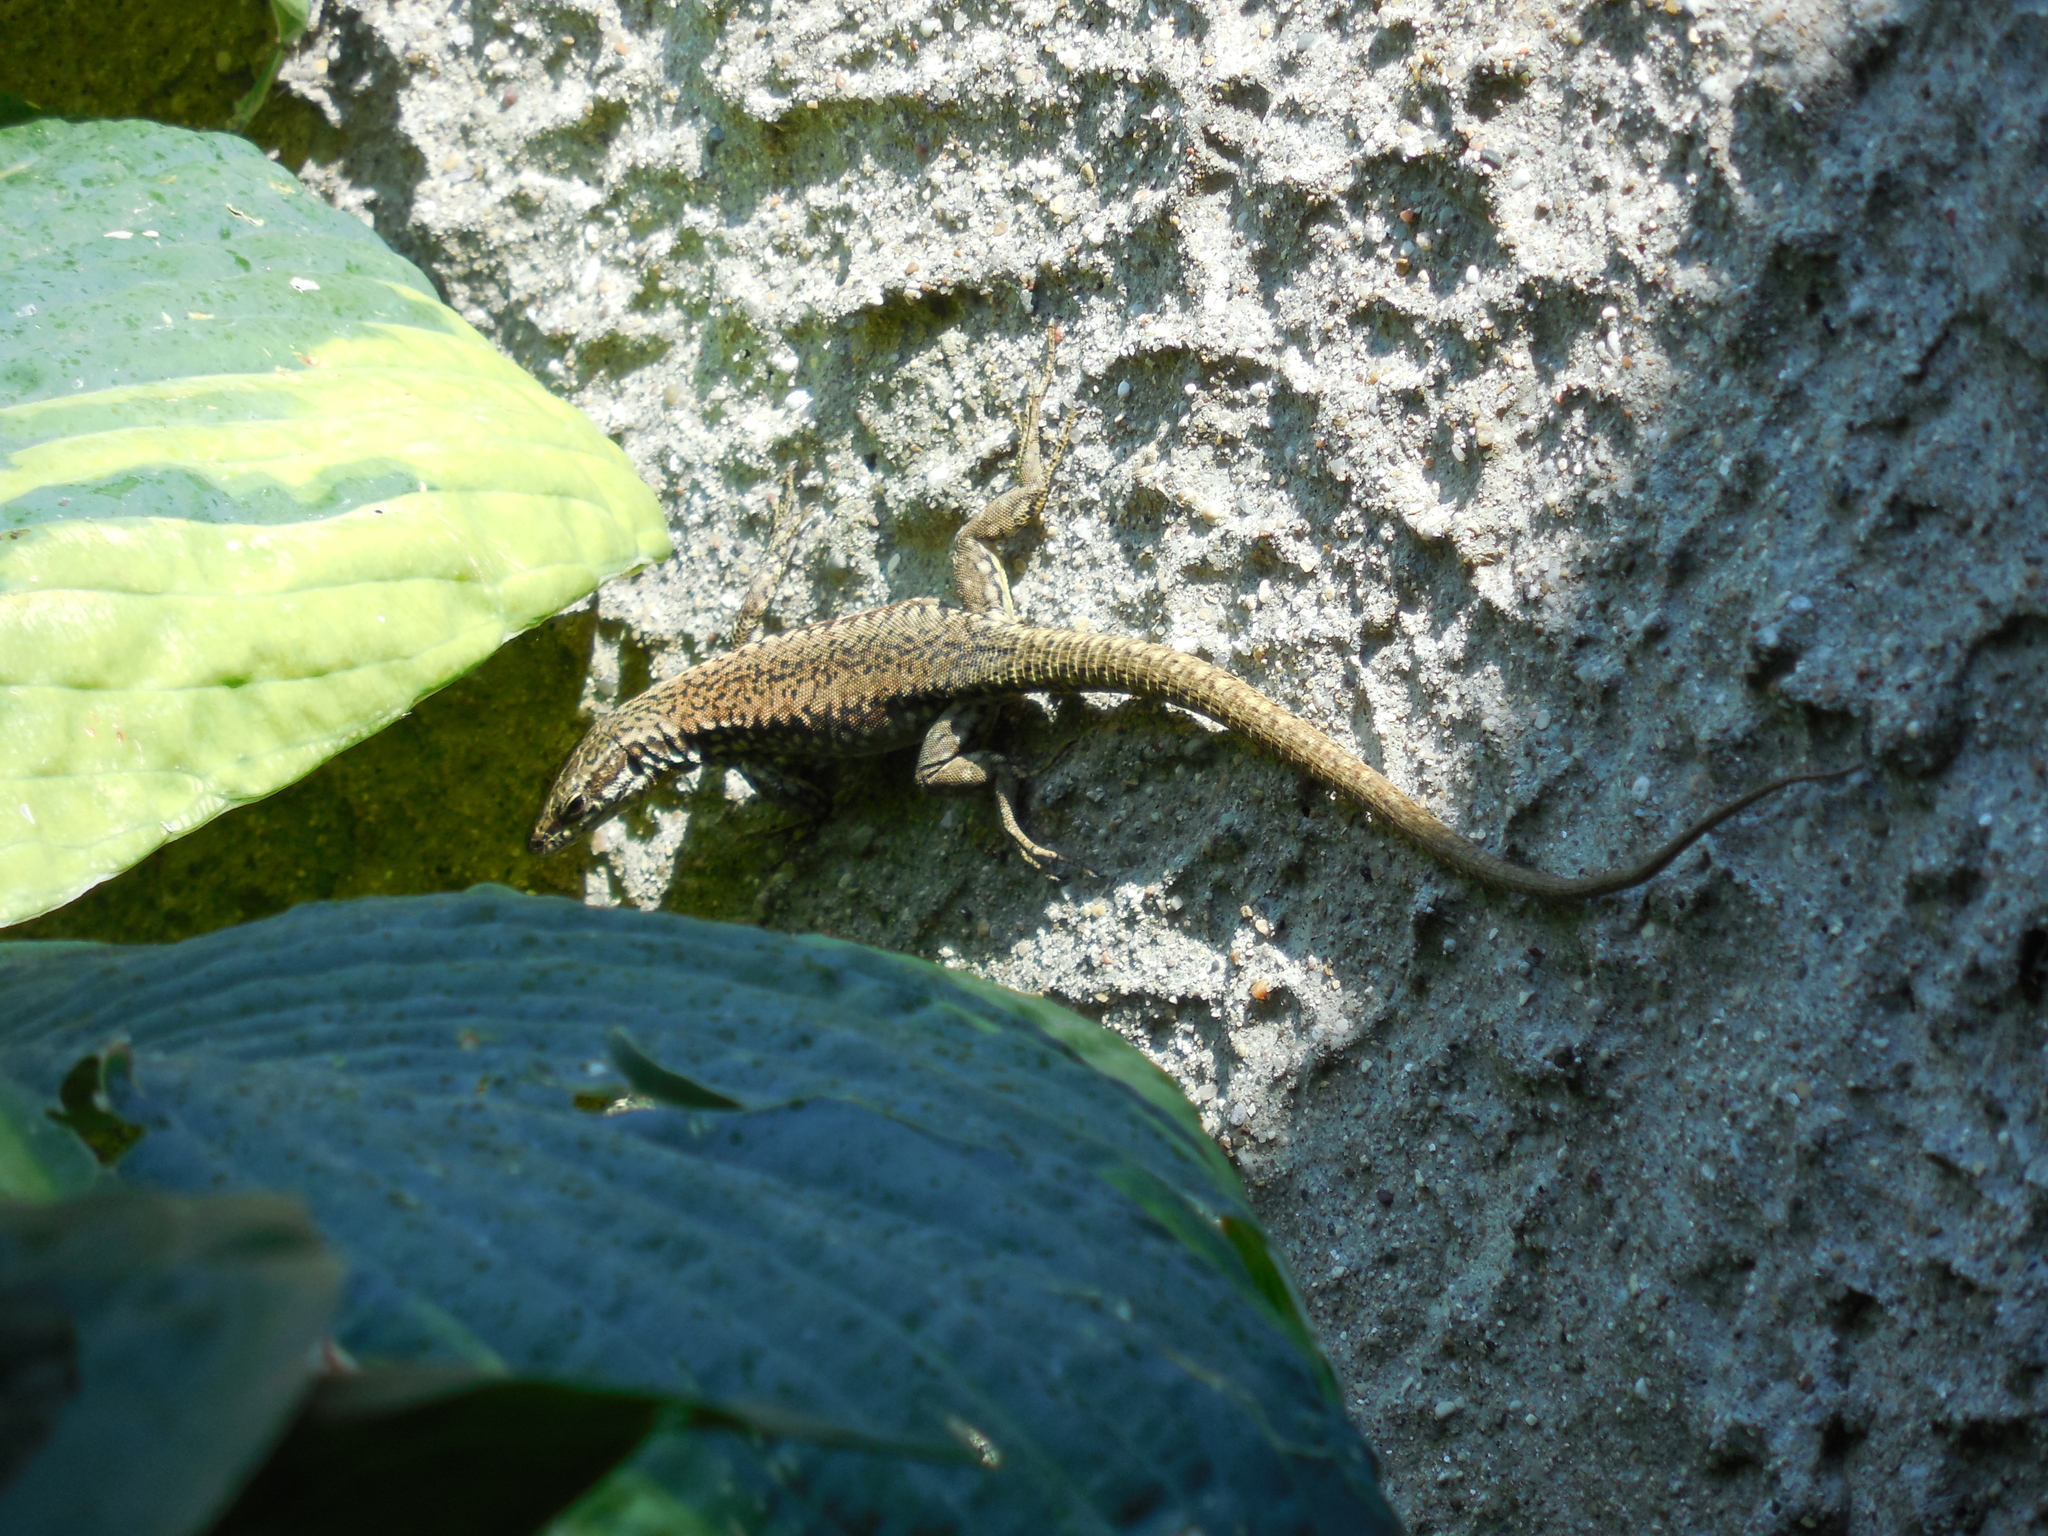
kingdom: Animalia
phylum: Chordata
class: Squamata
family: Lacertidae
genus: Podarcis
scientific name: Podarcis muralis
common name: Common wall lizard
